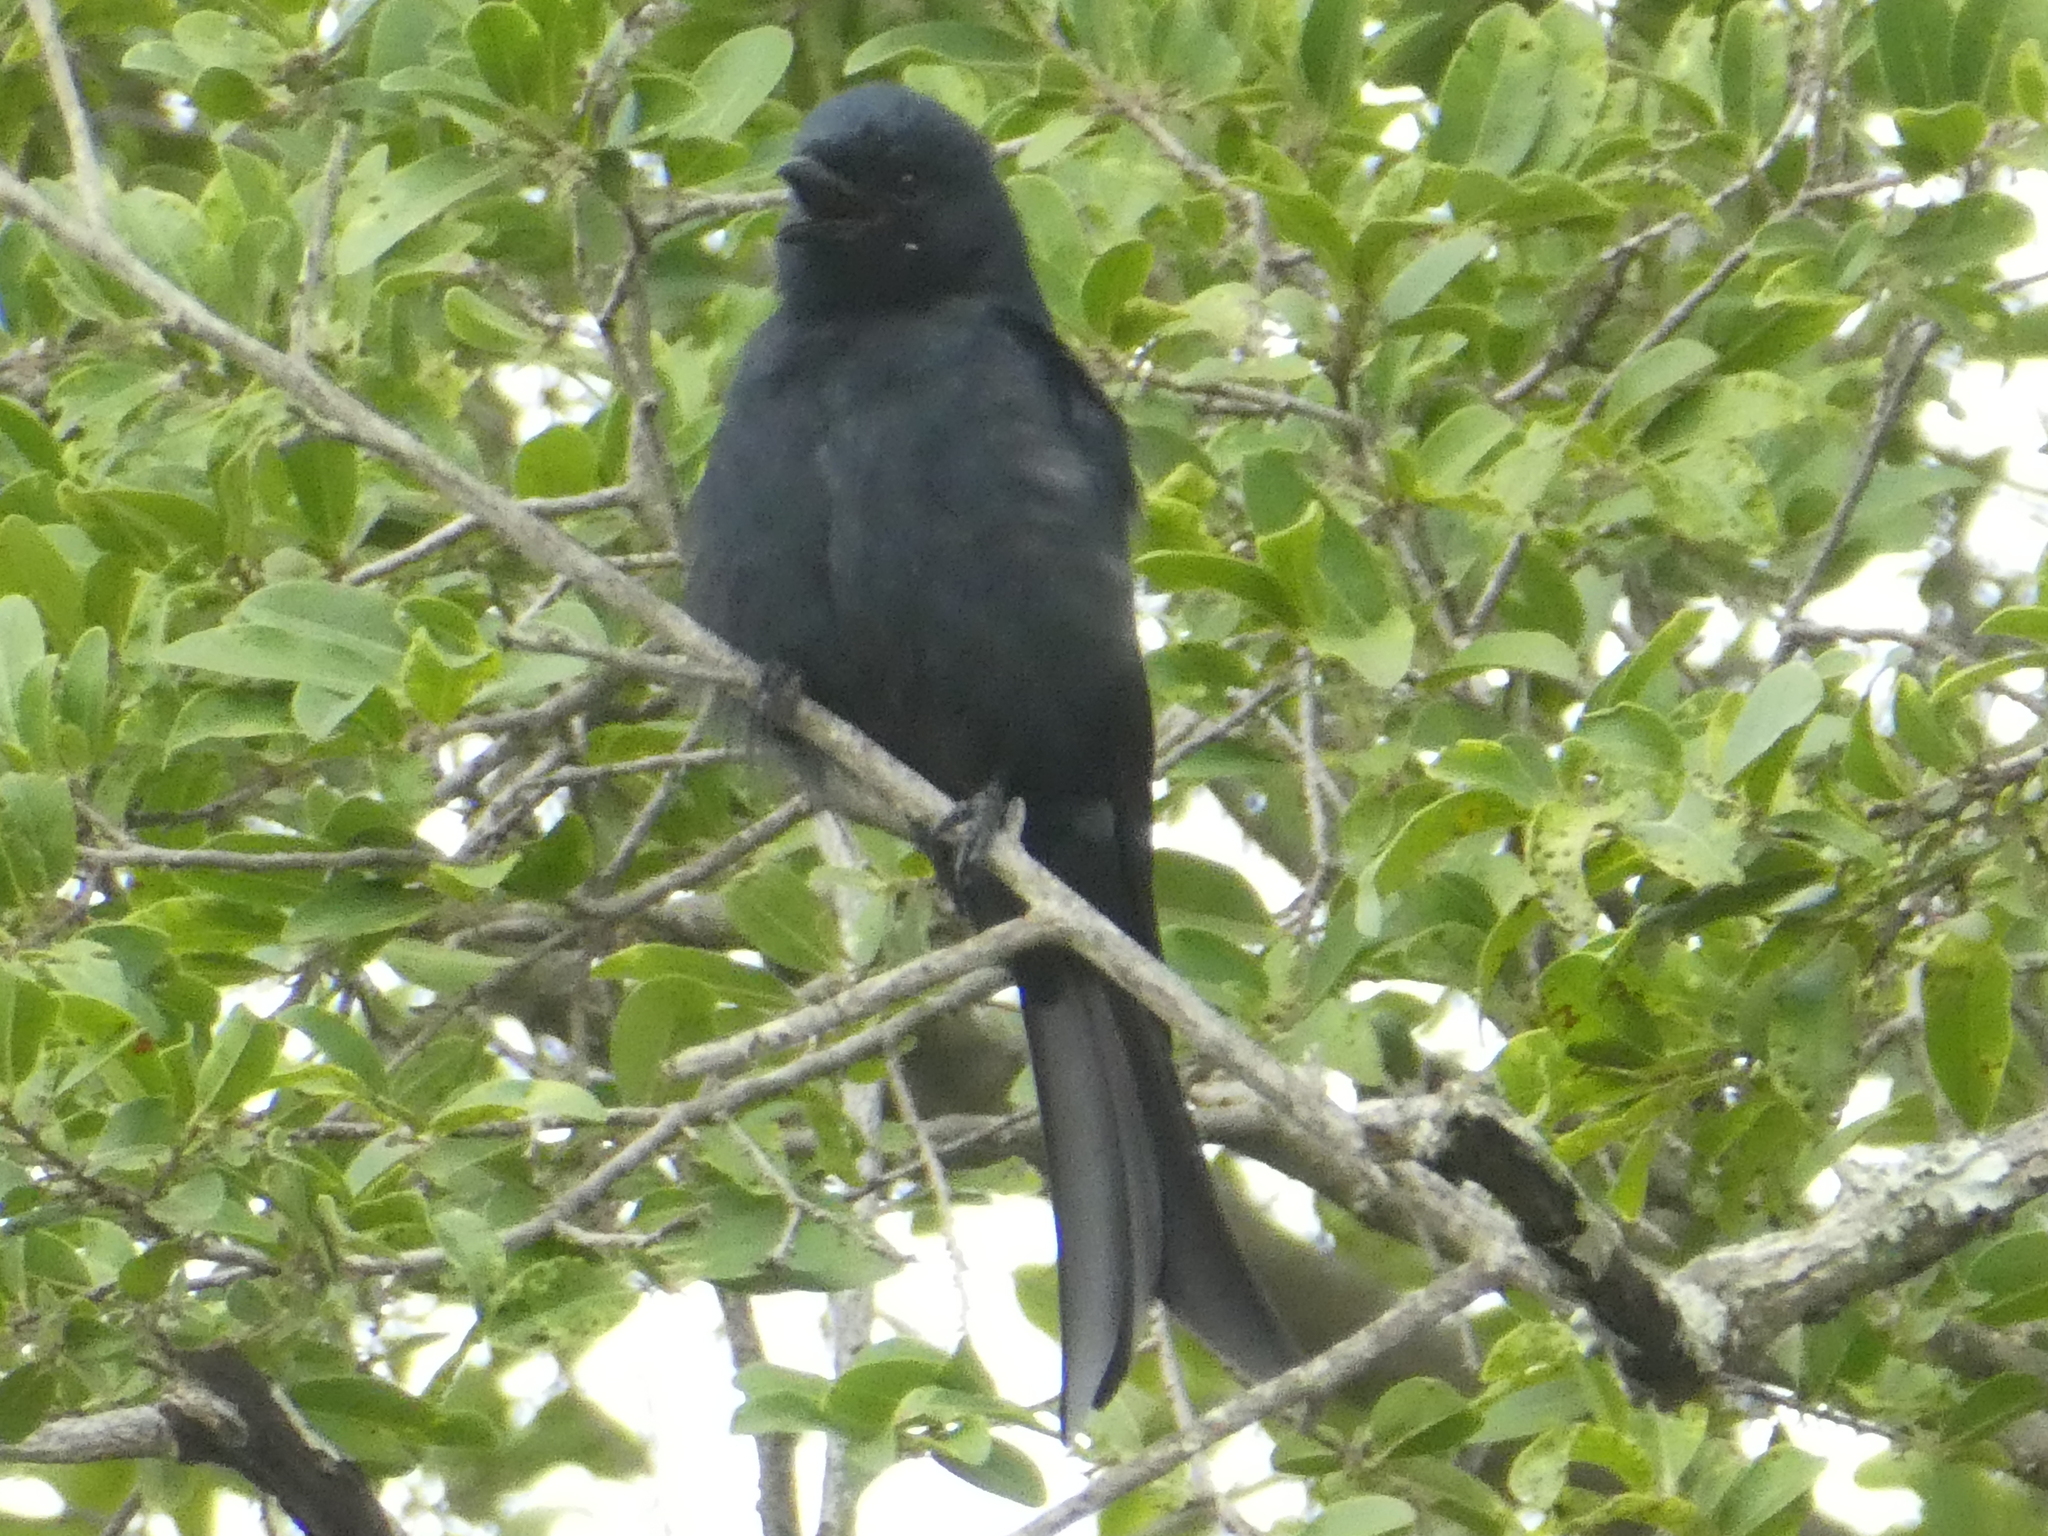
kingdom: Animalia
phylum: Chordata
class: Aves
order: Passeriformes
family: Dicruridae
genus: Dicrurus
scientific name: Dicrurus adsimilis
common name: Fork-tailed drongo
